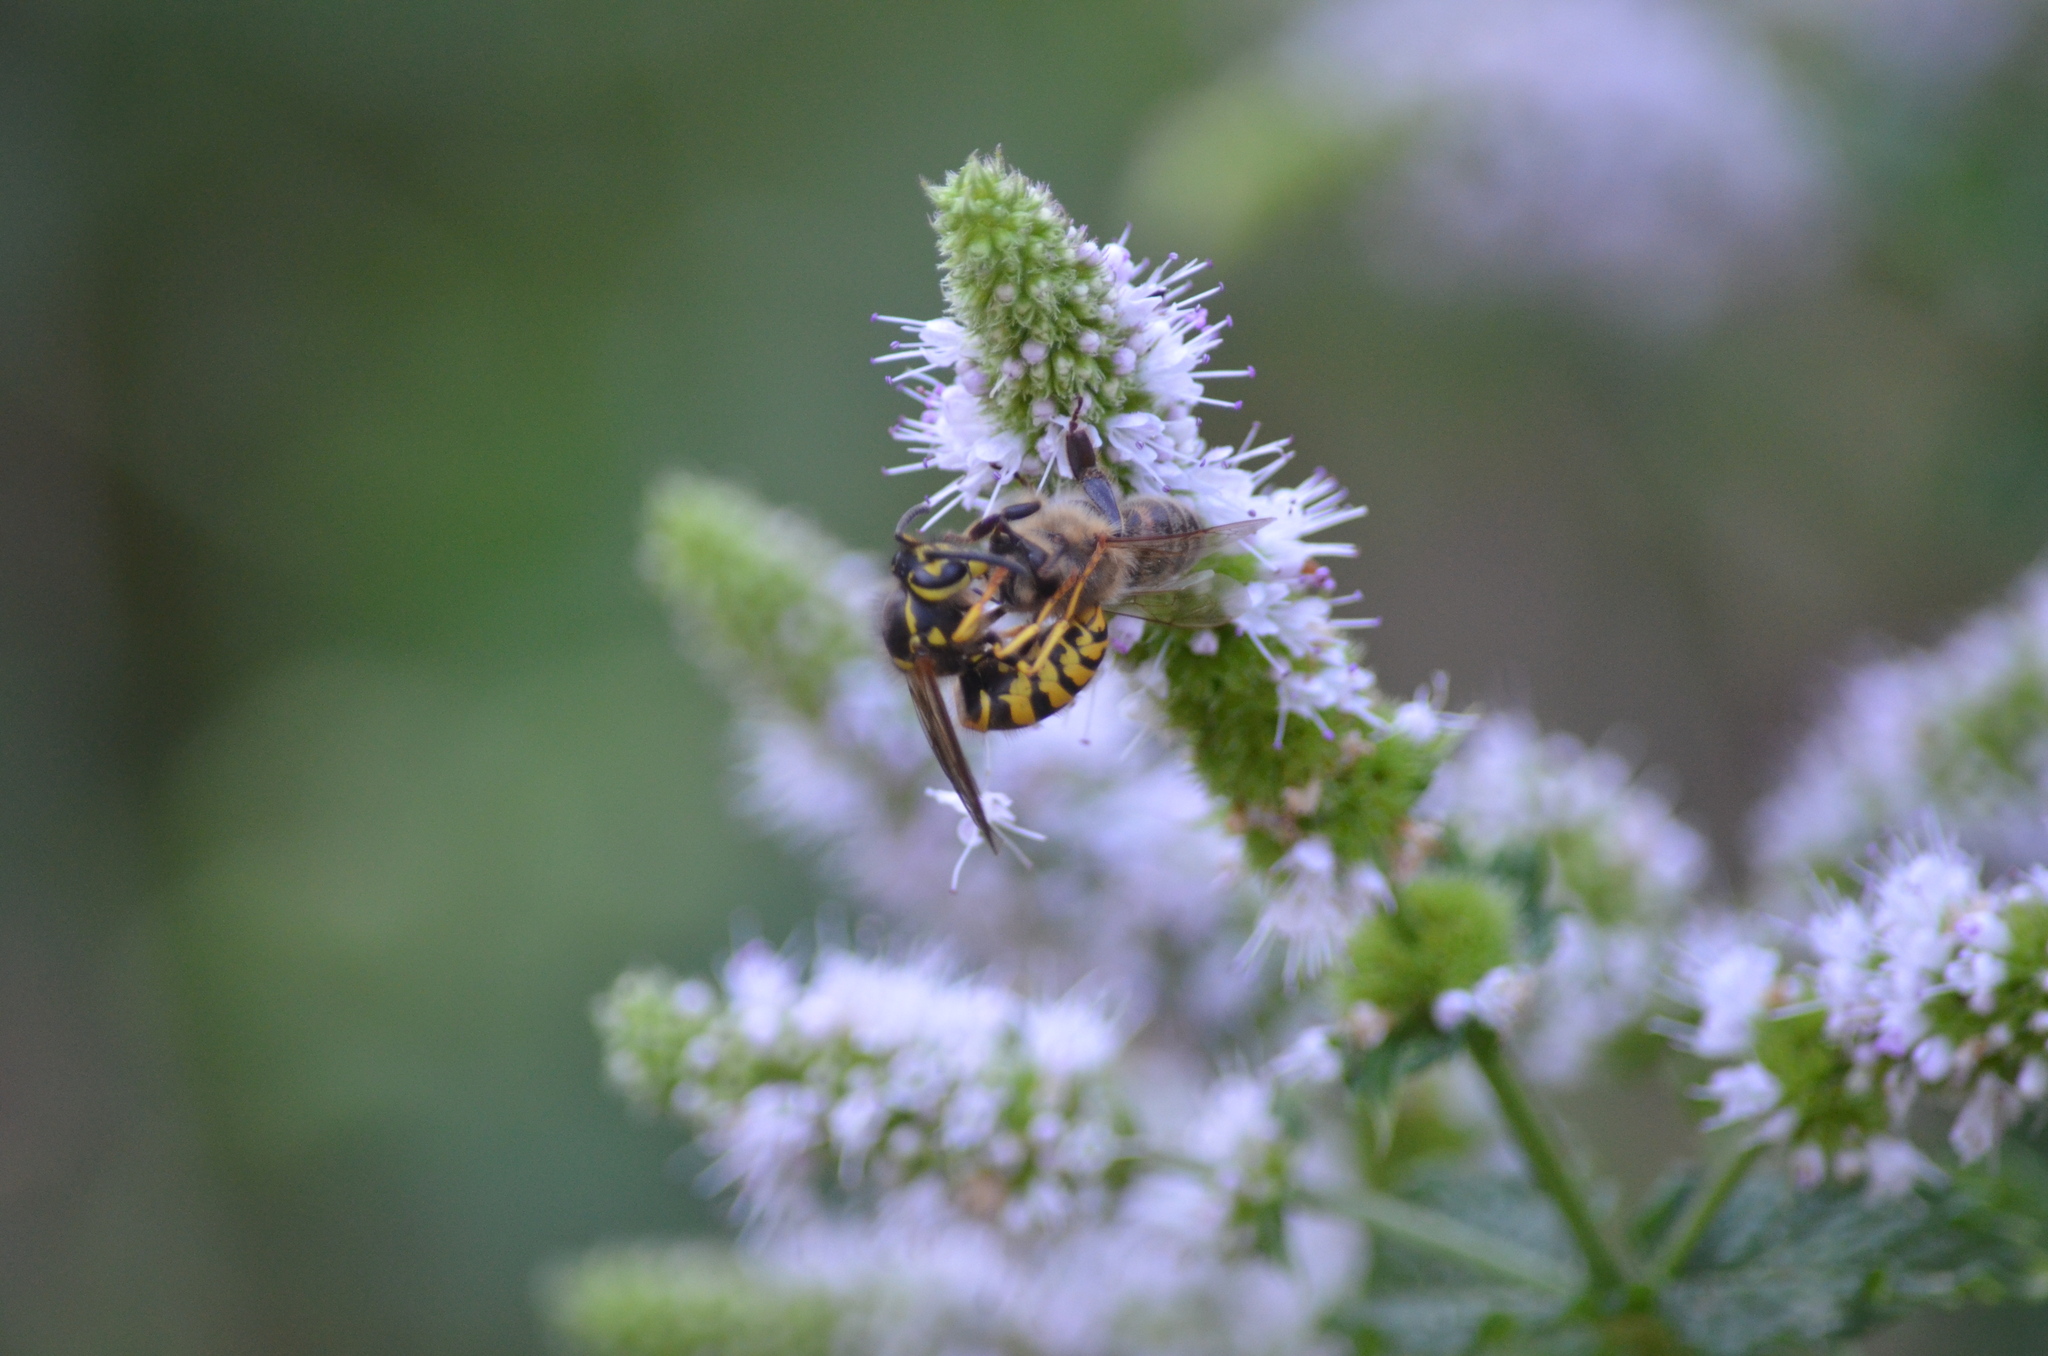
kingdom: Animalia
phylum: Arthropoda
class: Insecta
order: Hymenoptera
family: Vespidae
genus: Vespula
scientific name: Vespula pensylvanica
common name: Western yellowjacket
